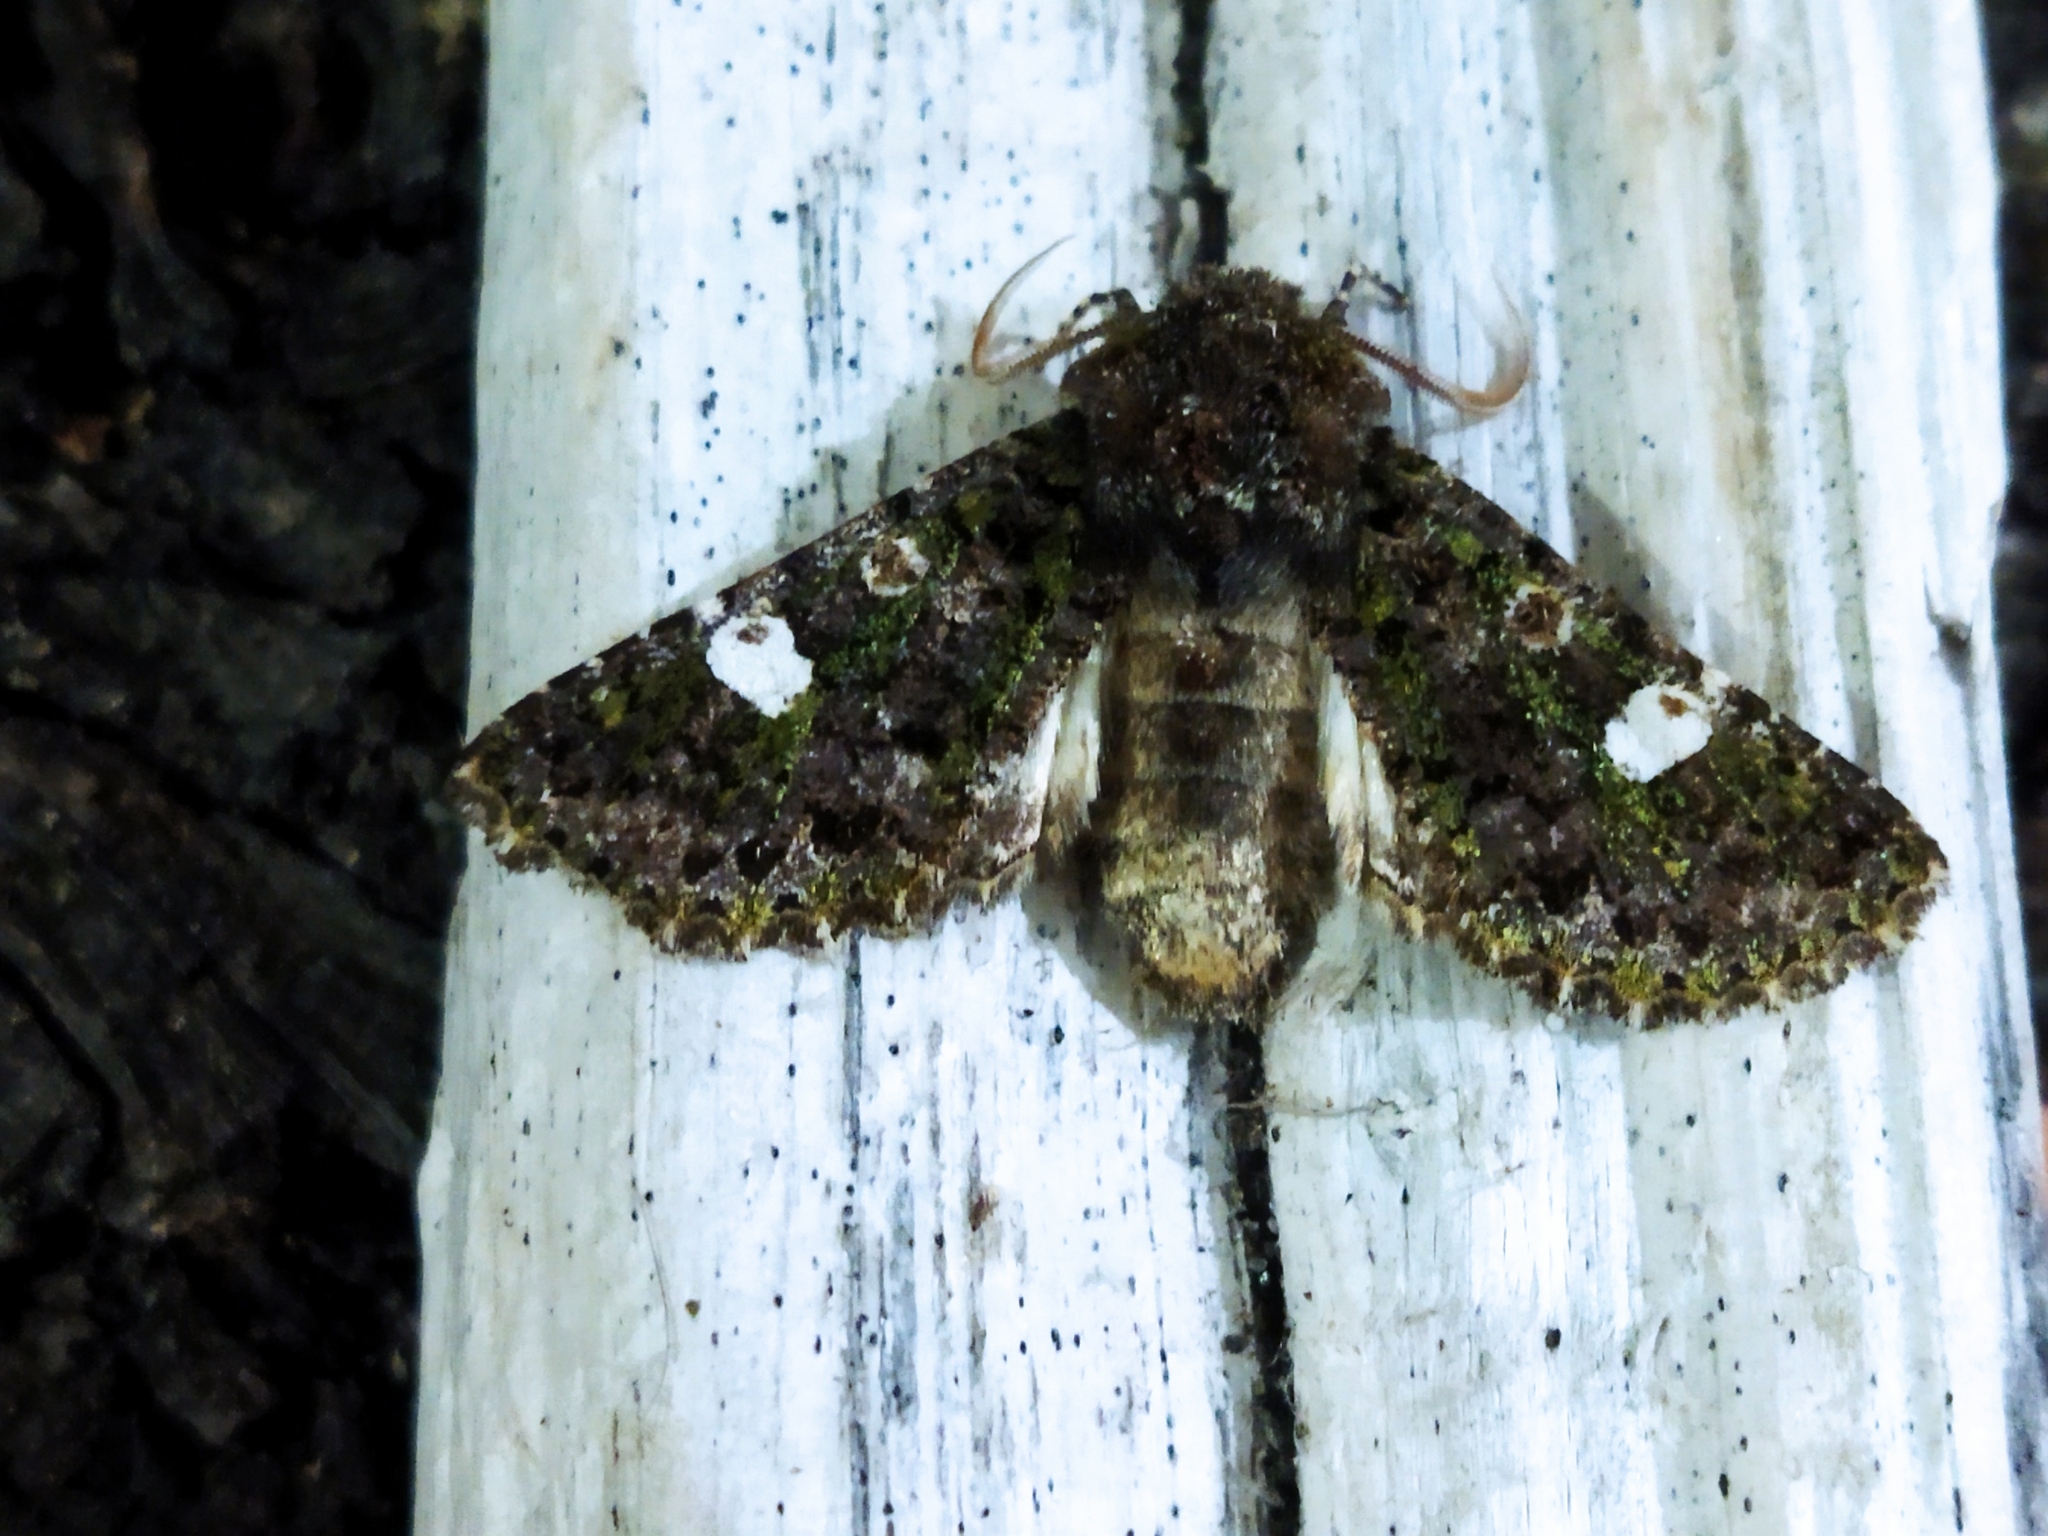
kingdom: Animalia
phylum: Arthropoda
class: Insecta
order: Lepidoptera
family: Noctuidae
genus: Valeria
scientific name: Valeria oleagina
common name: Green-brindled dot
